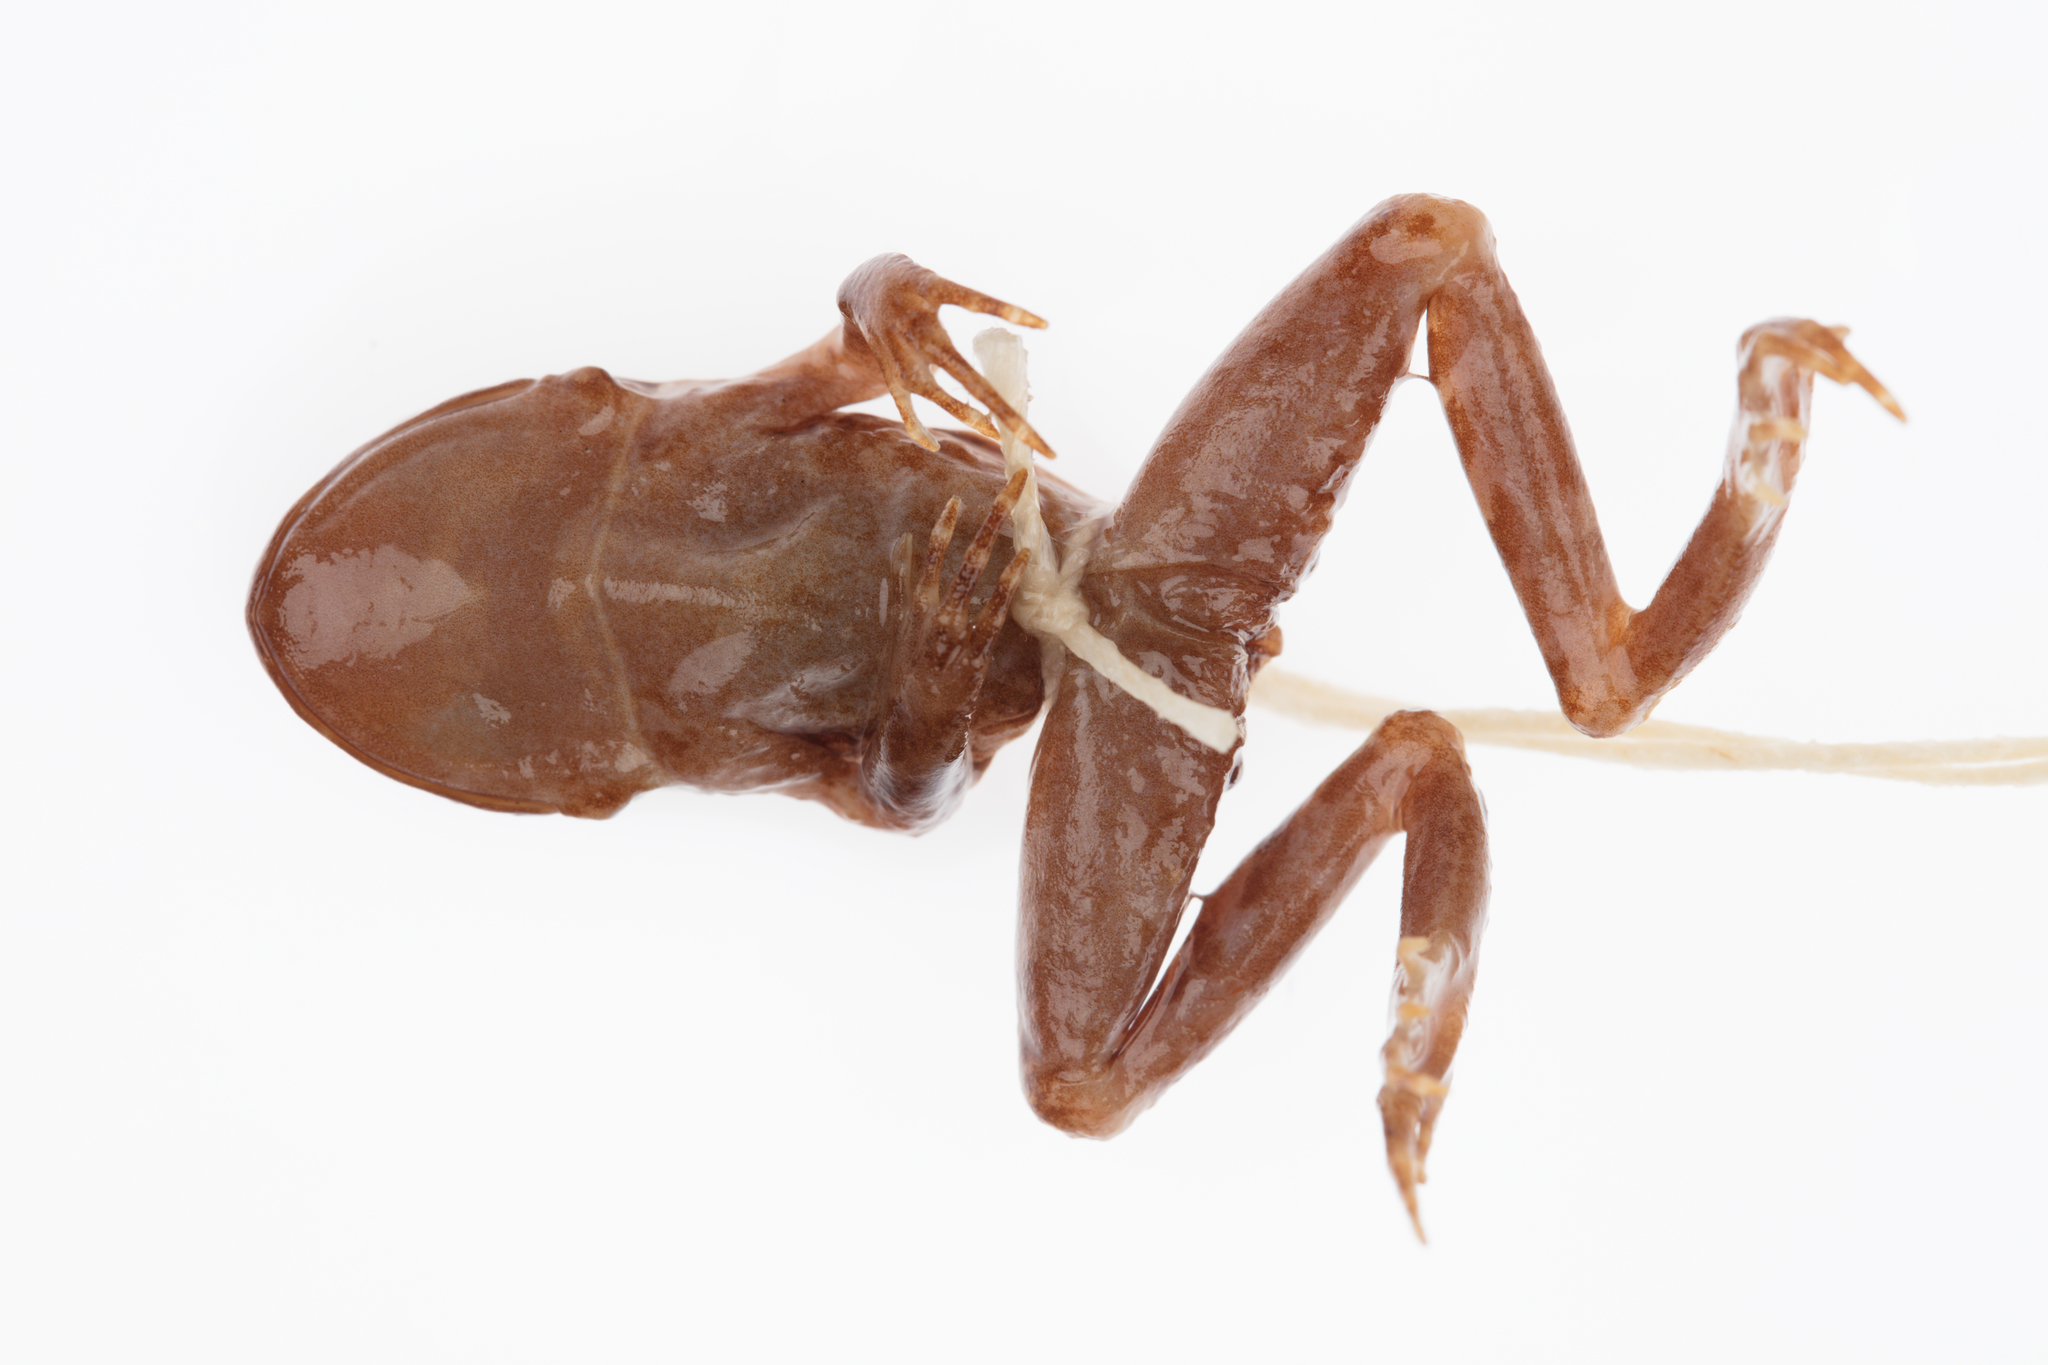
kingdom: Animalia
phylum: Chordata
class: Amphibia
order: Anura
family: Leiopelmatidae
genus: Leiopelma
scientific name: Leiopelma archeyi
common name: Archey's frog
